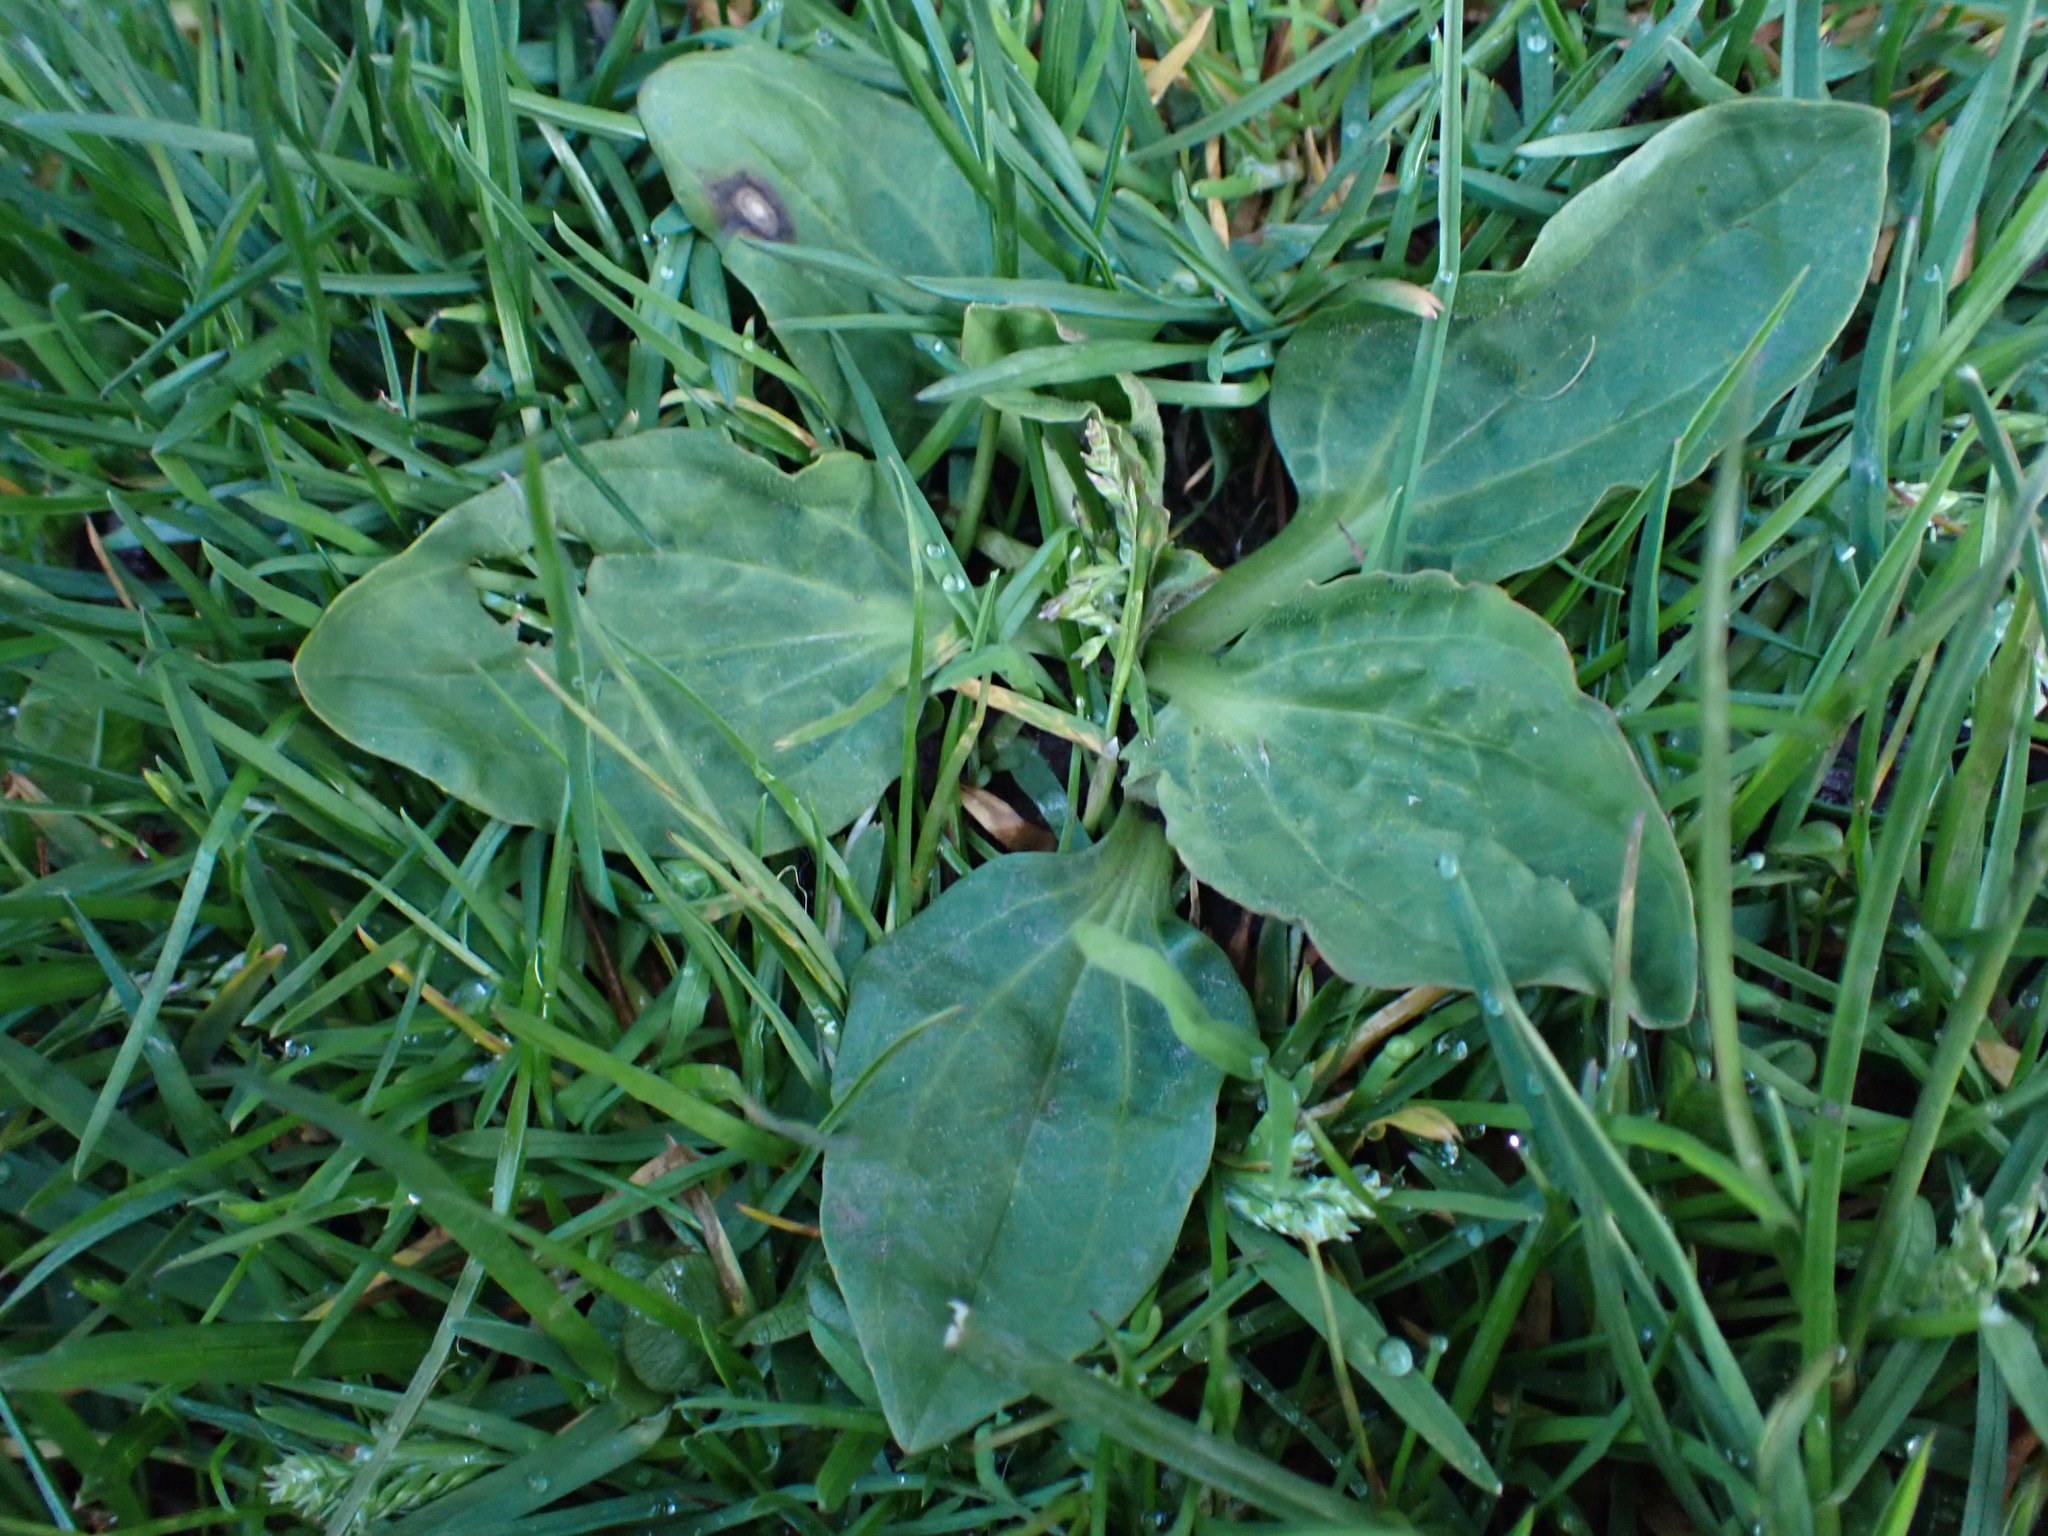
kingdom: Plantae
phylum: Tracheophyta
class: Magnoliopsida
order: Lamiales
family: Plantaginaceae
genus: Plantago
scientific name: Plantago major
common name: Common plantain
